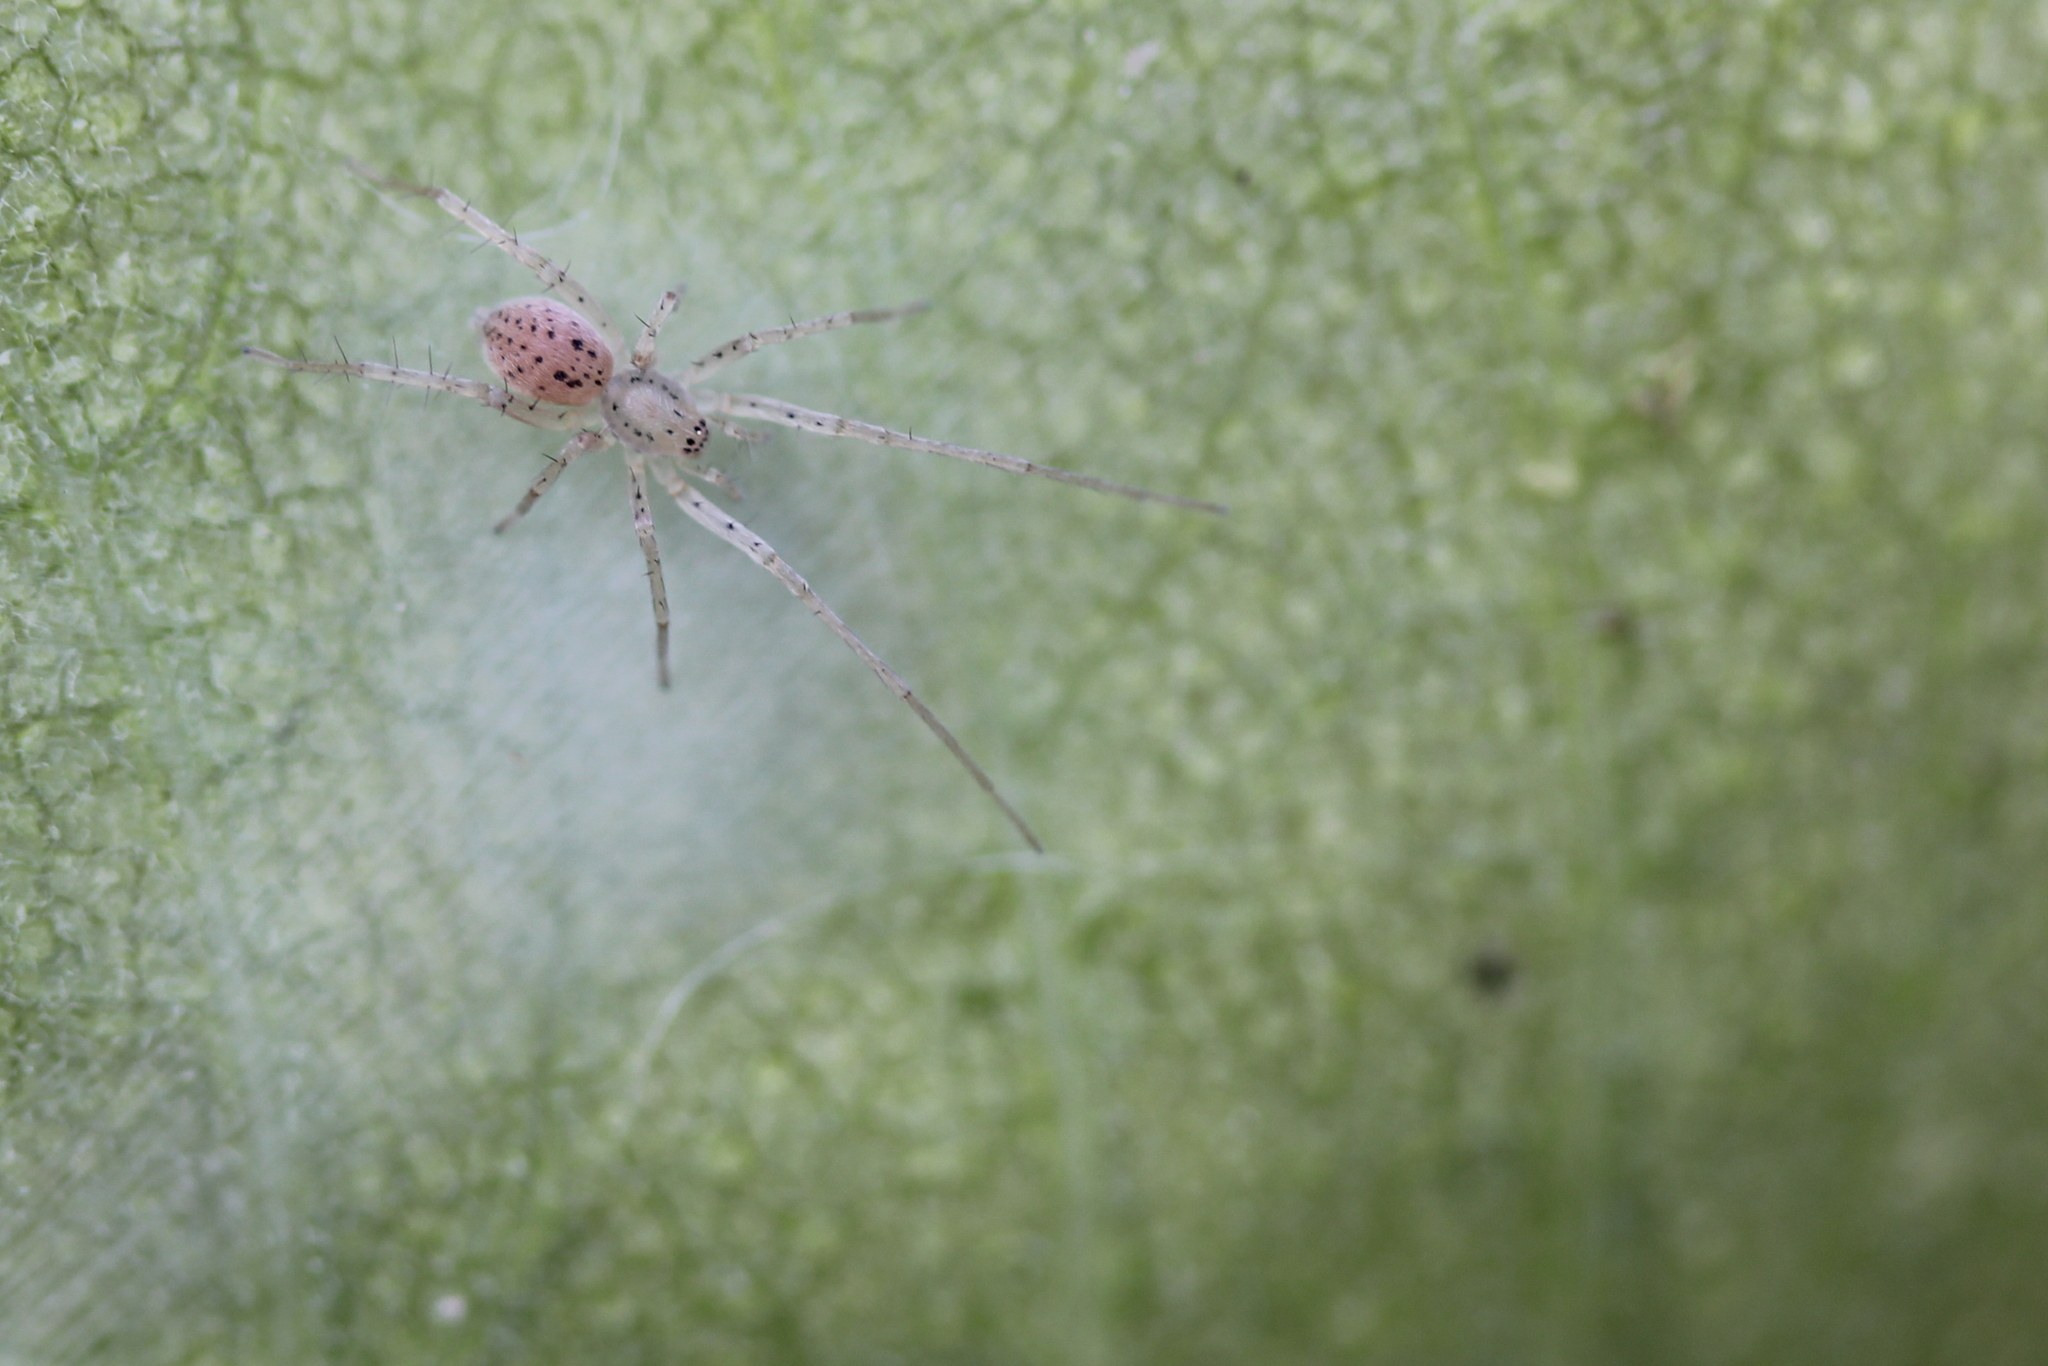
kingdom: Animalia
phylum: Arthropoda
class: Arachnida
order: Araneae
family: Anyphaenidae
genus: Wulfila
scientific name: Wulfila saltabundus
